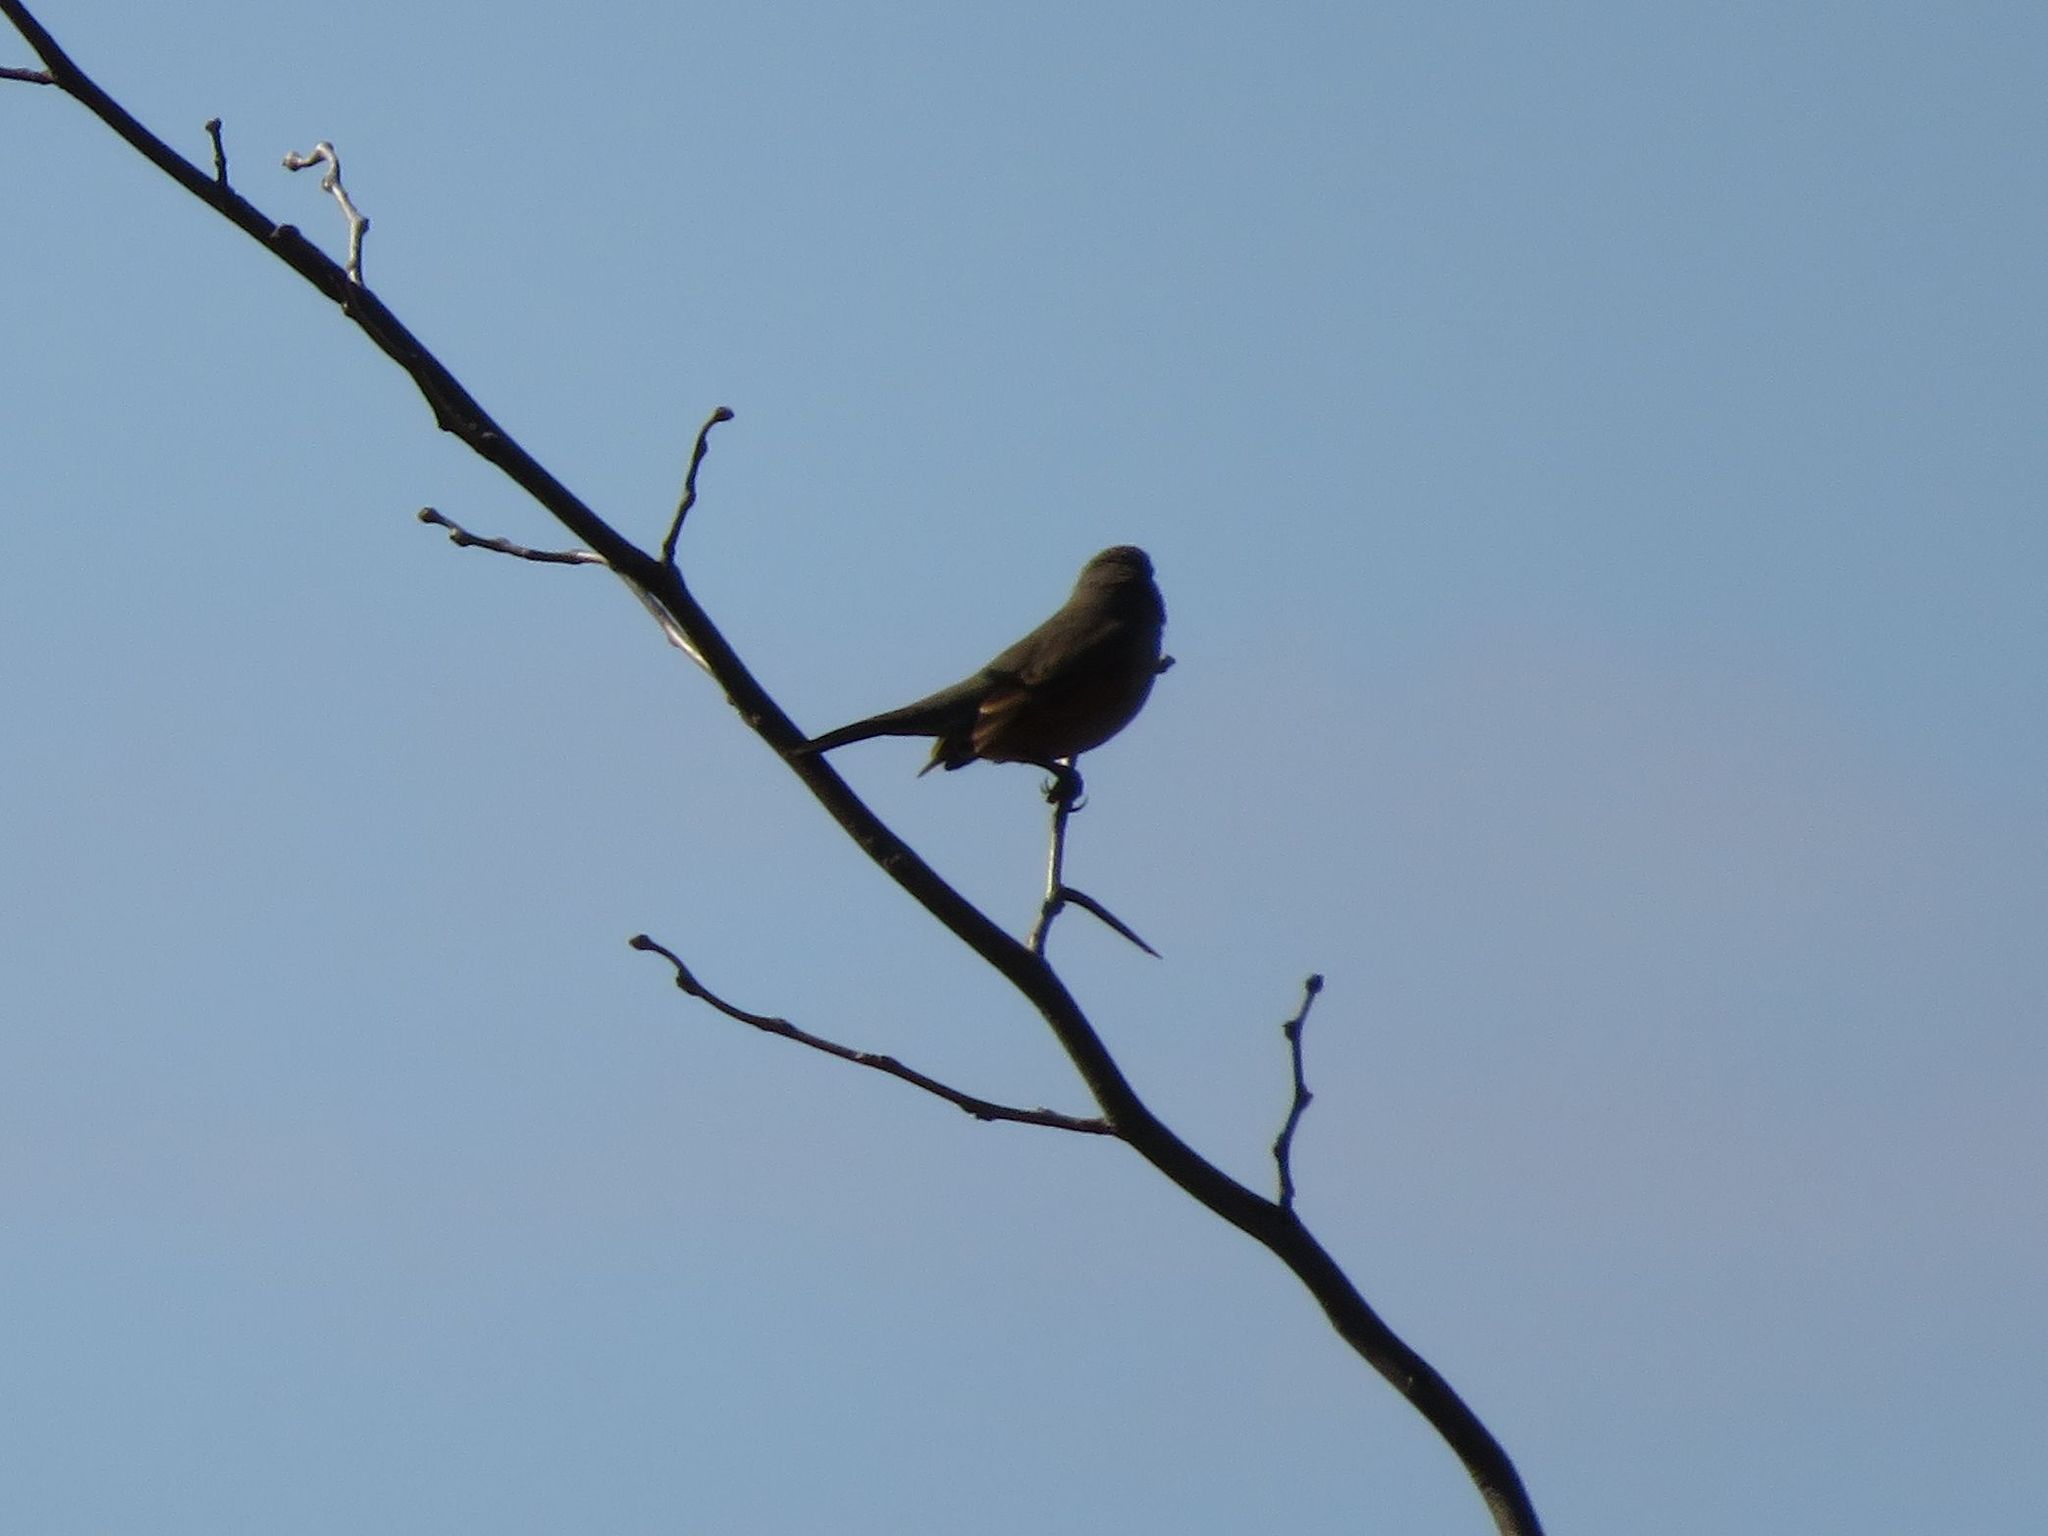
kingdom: Animalia
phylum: Chordata
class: Aves
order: Passeriformes
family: Icteridae
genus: Agelaioides
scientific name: Agelaioides badius
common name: Baywing
